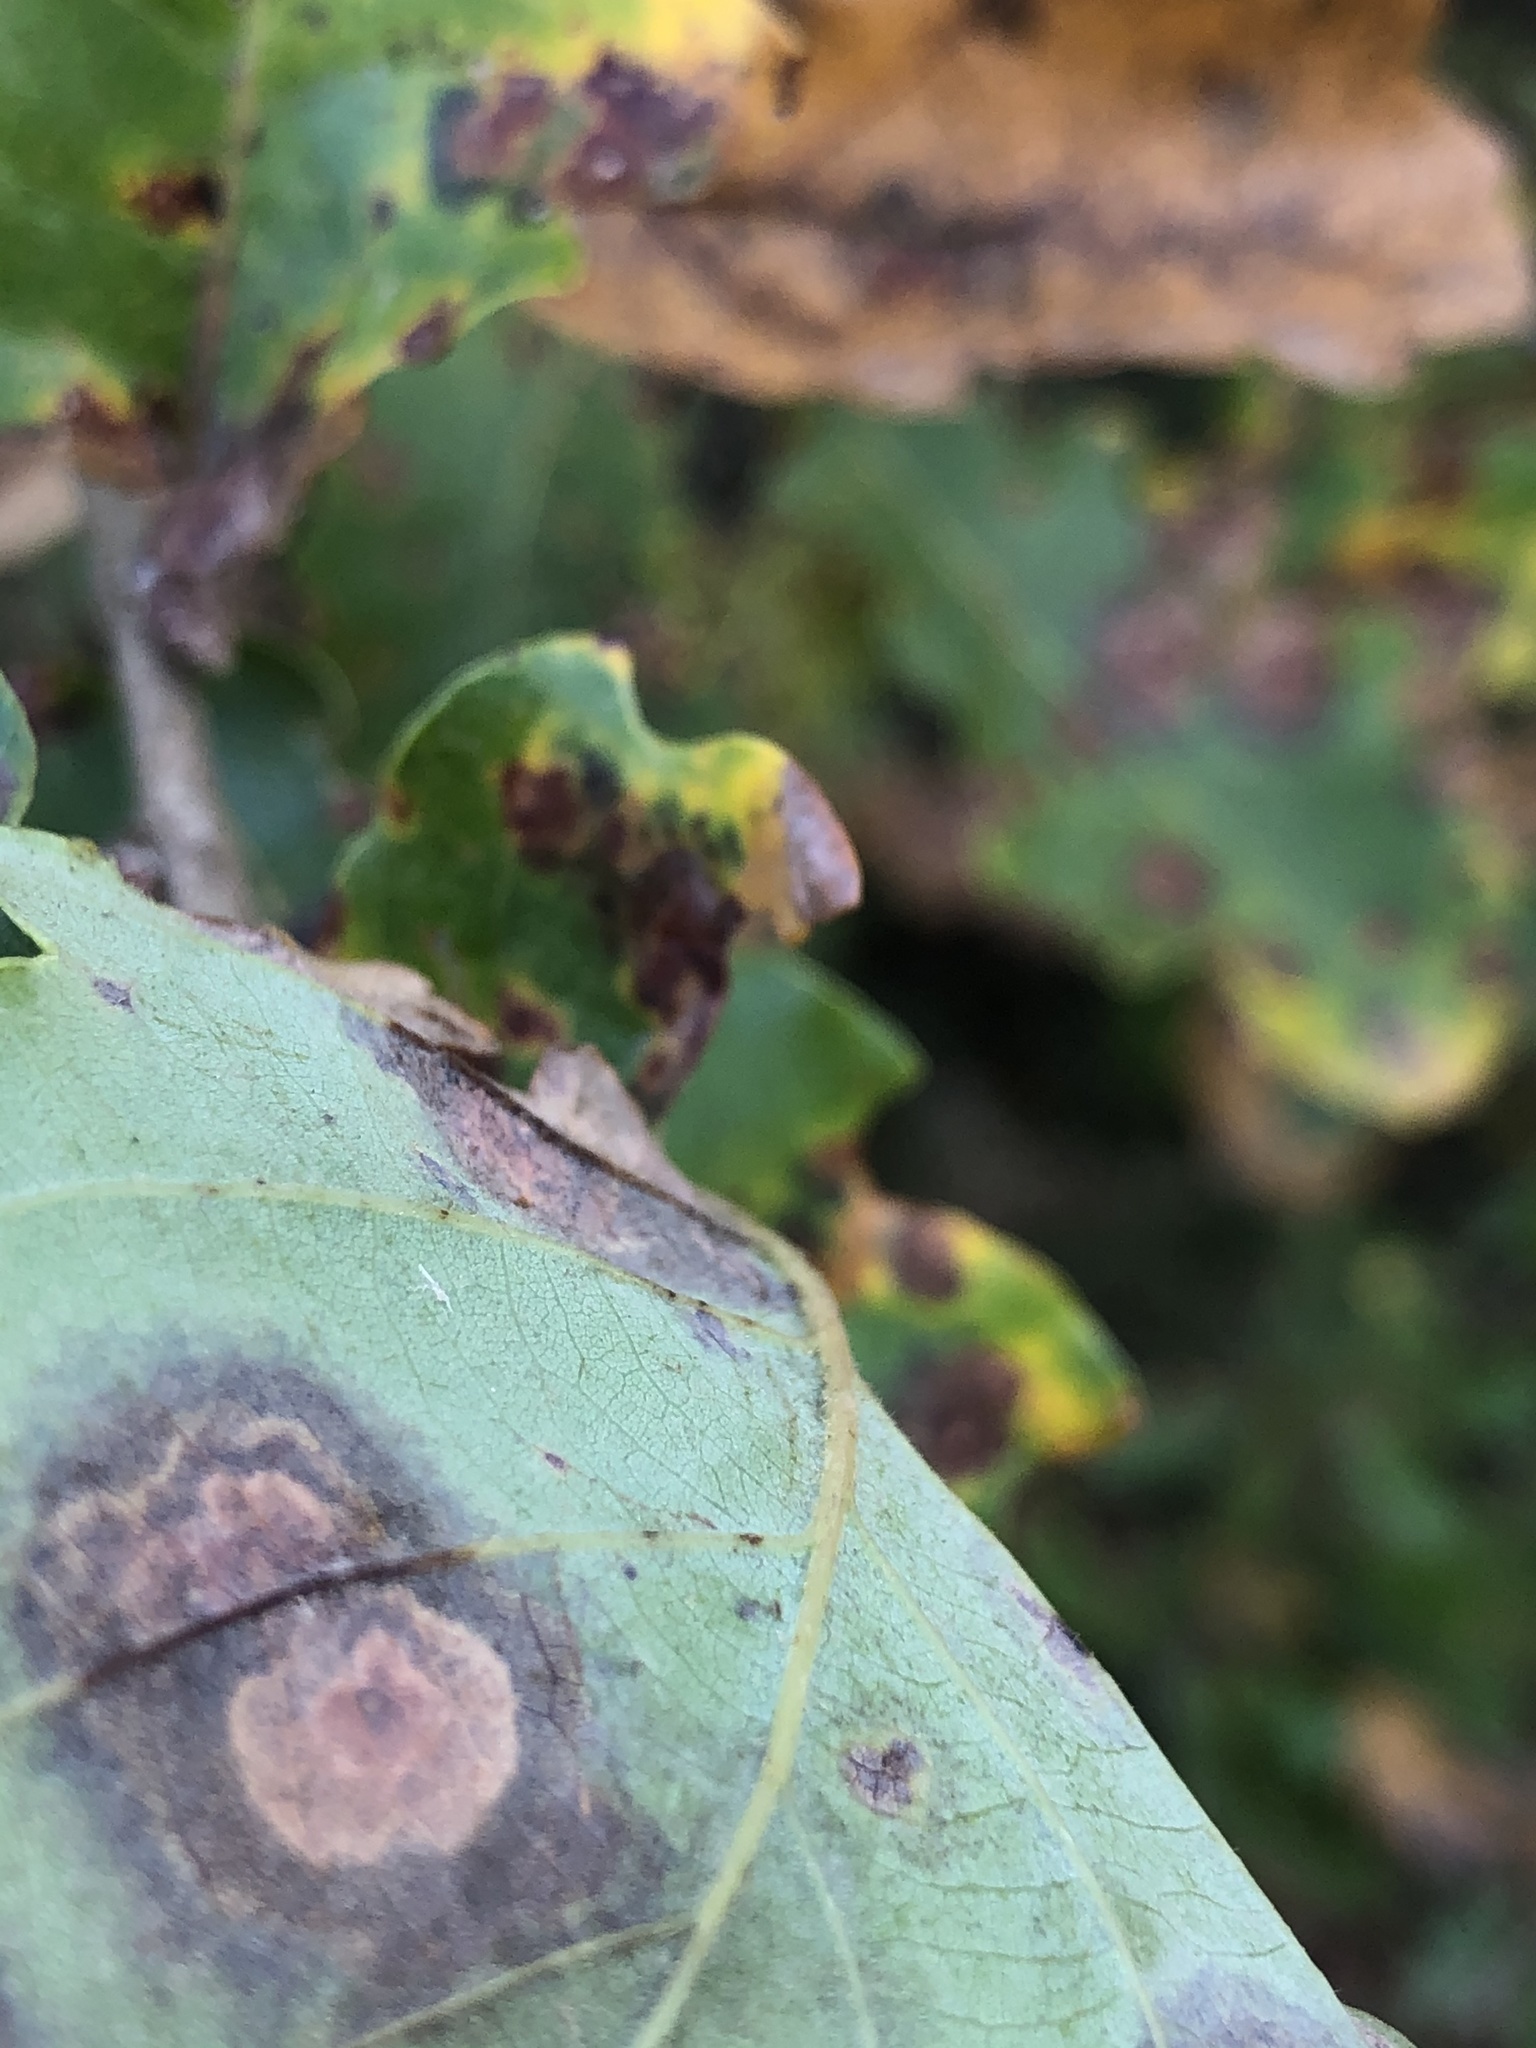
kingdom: Plantae
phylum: Tracheophyta
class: Magnoliopsida
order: Fagales
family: Fagaceae
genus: Quercus
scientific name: Quercus cerrioides
